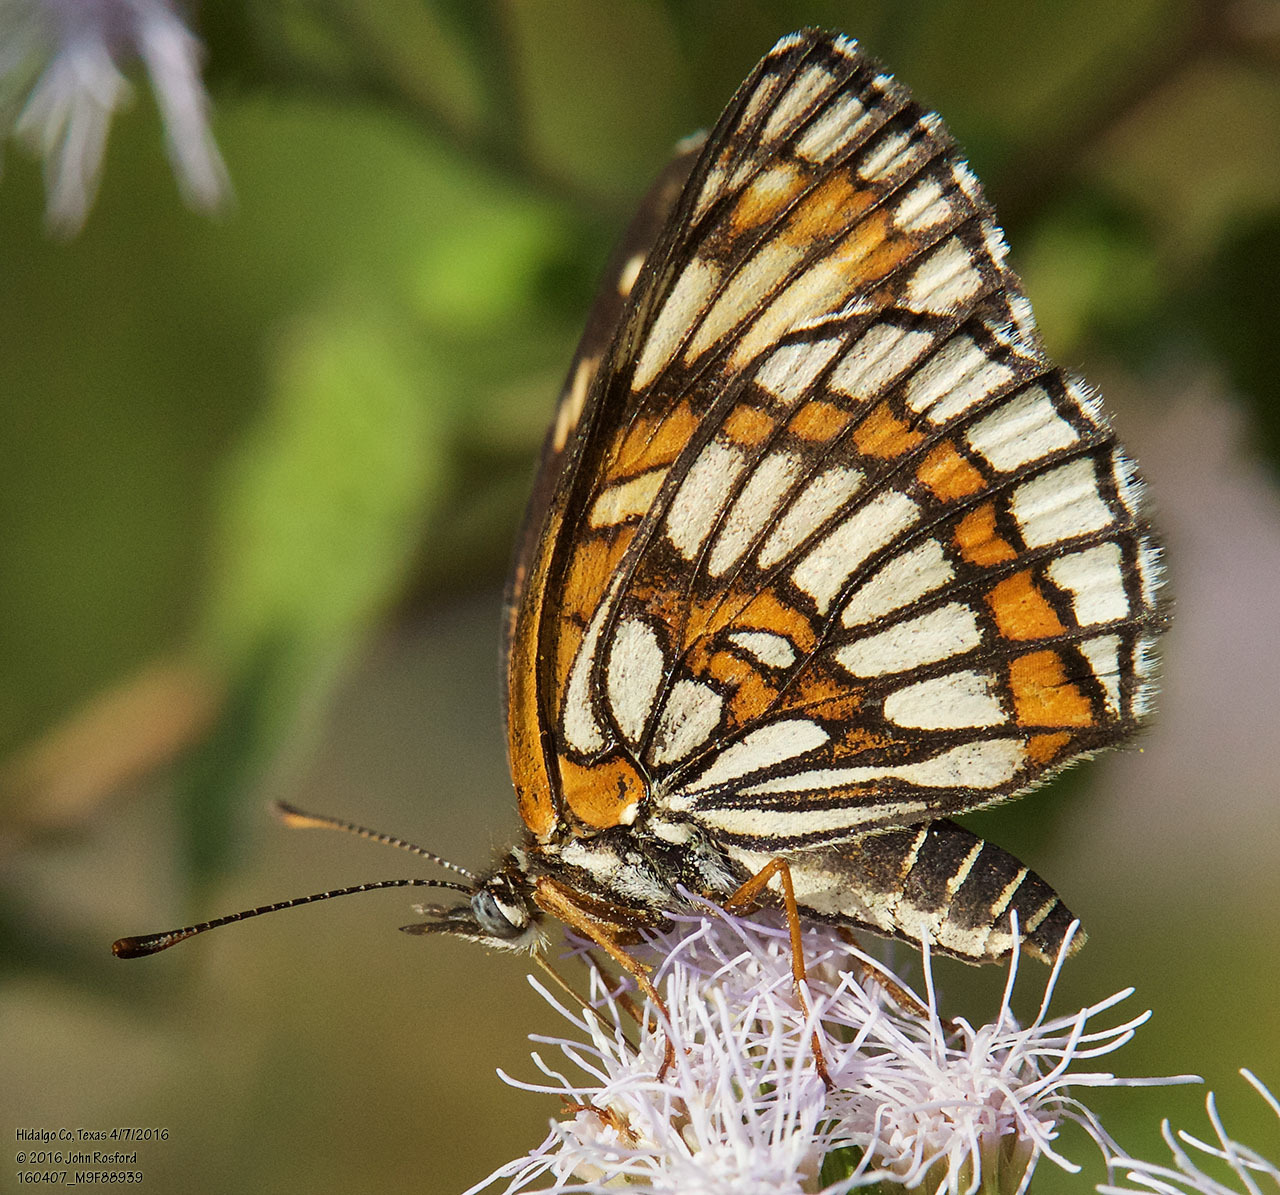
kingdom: Animalia
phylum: Arthropoda
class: Insecta
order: Lepidoptera
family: Nymphalidae
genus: Thessalia
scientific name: Thessalia theona
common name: Nymphalid moth
